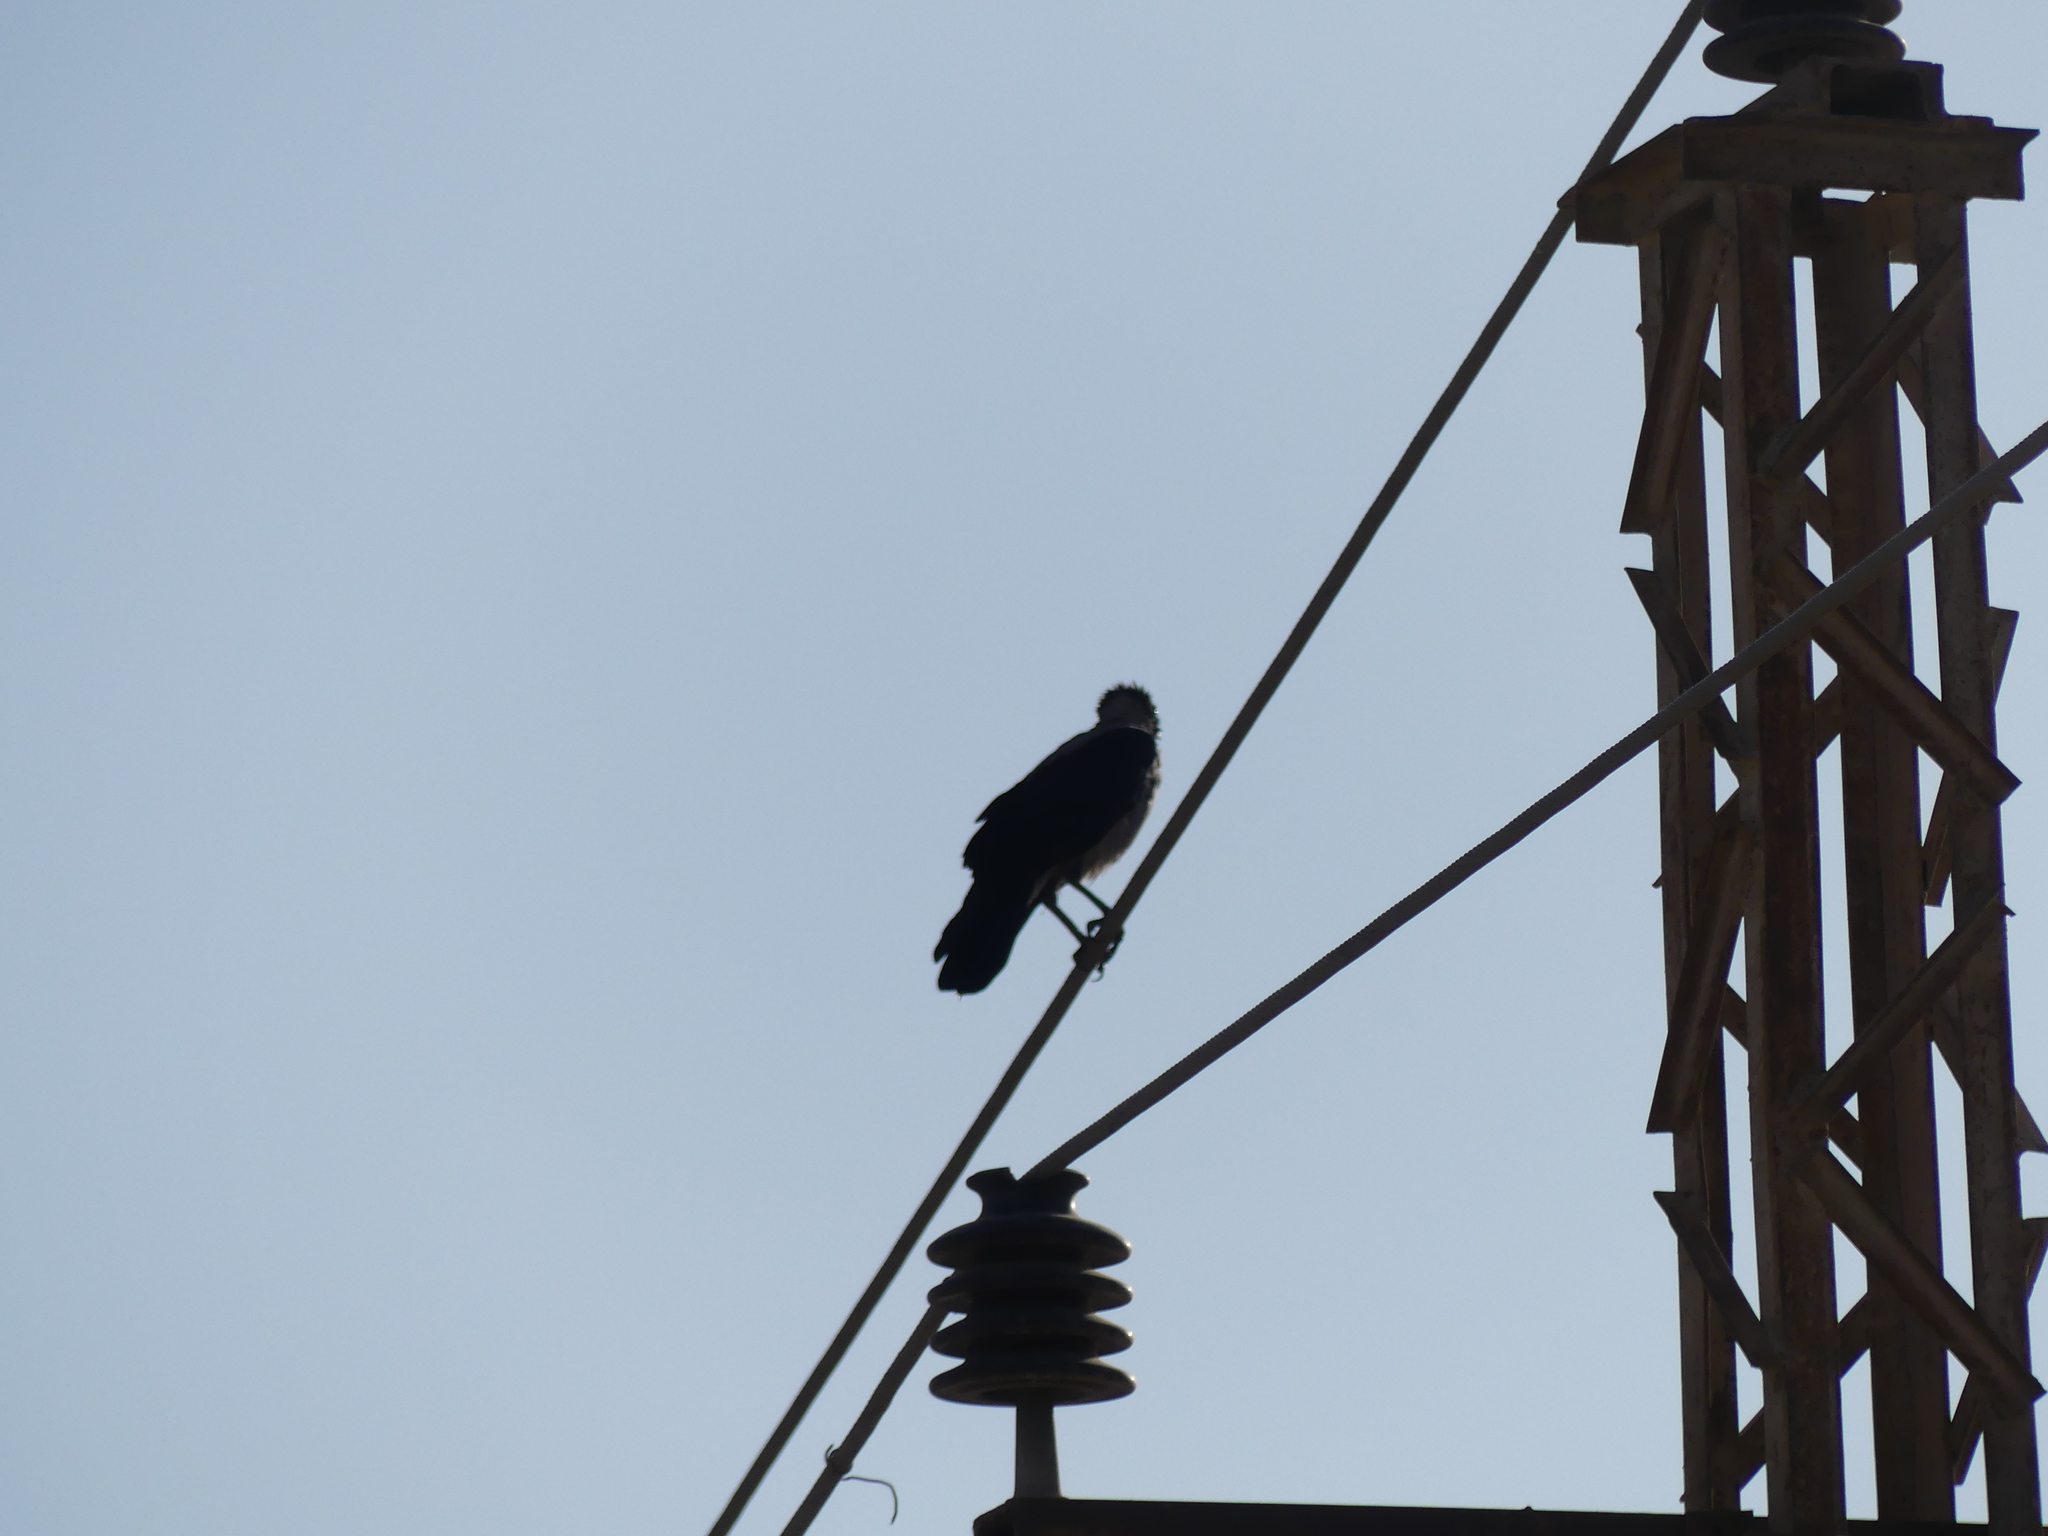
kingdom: Animalia
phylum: Chordata
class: Aves
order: Passeriformes
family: Corvidae
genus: Corvus
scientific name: Corvus cornix
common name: Hooded crow
